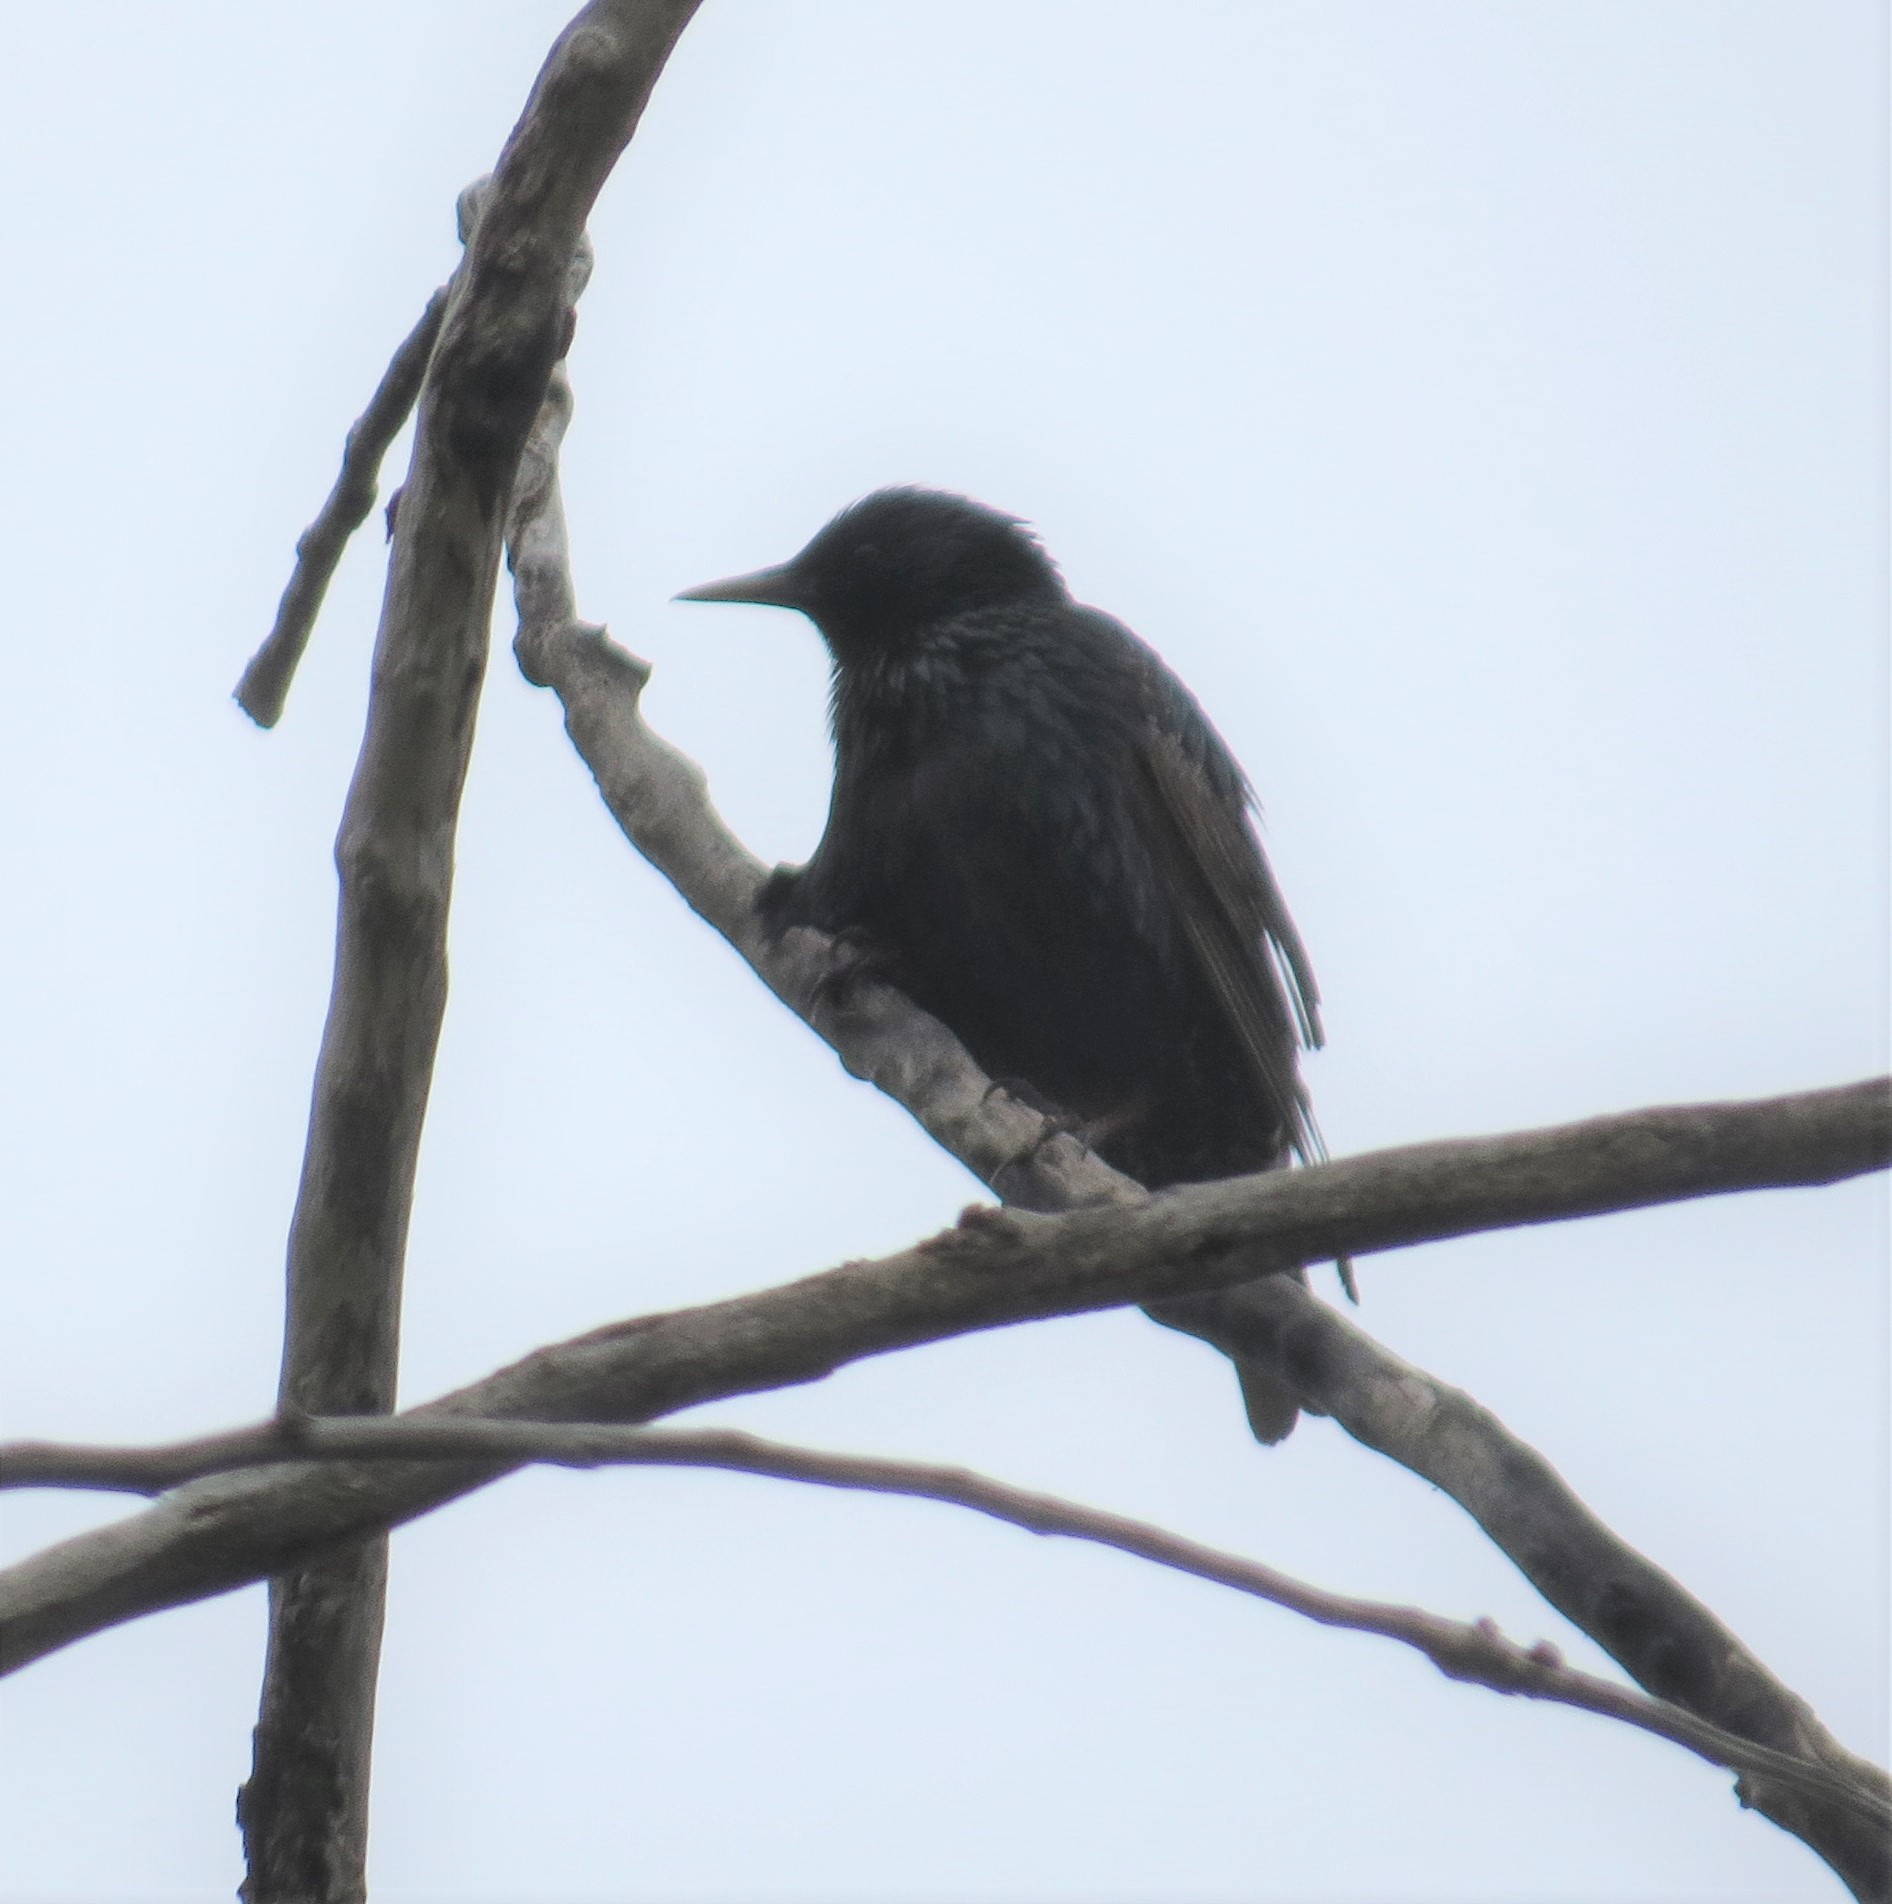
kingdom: Animalia
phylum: Chordata
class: Aves
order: Passeriformes
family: Sturnidae
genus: Sturnus
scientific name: Sturnus vulgaris
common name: Common starling
